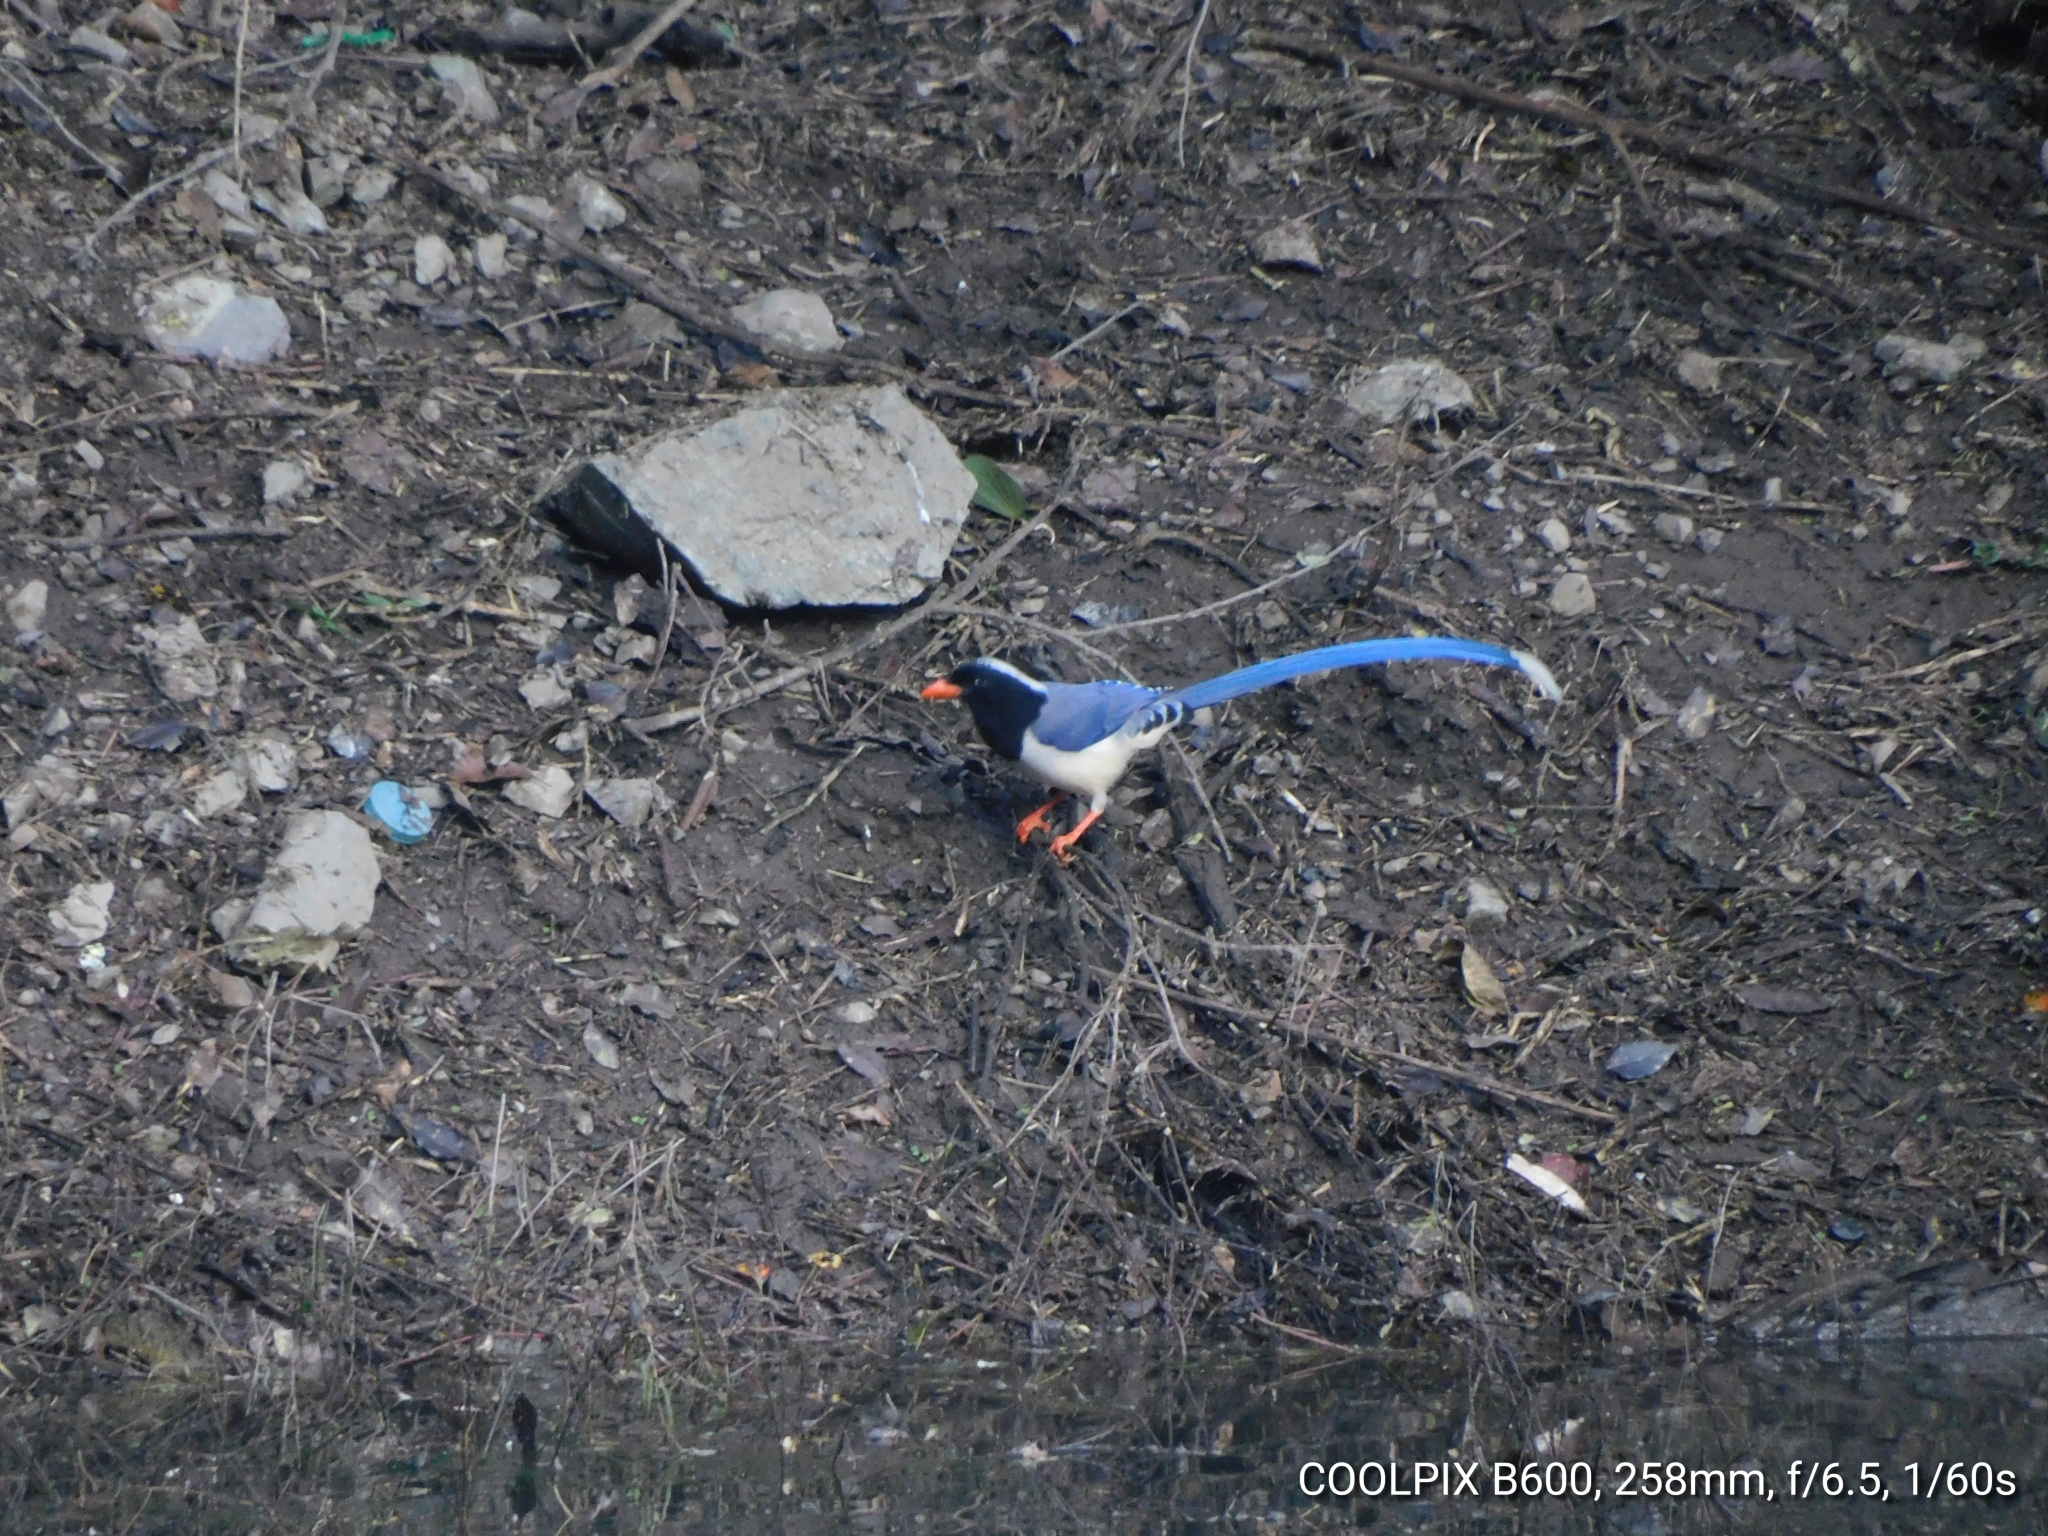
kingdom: Animalia
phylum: Chordata
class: Aves
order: Passeriformes
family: Corvidae
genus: Urocissa
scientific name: Urocissa erythroryncha
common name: Red-billed blue magpie
